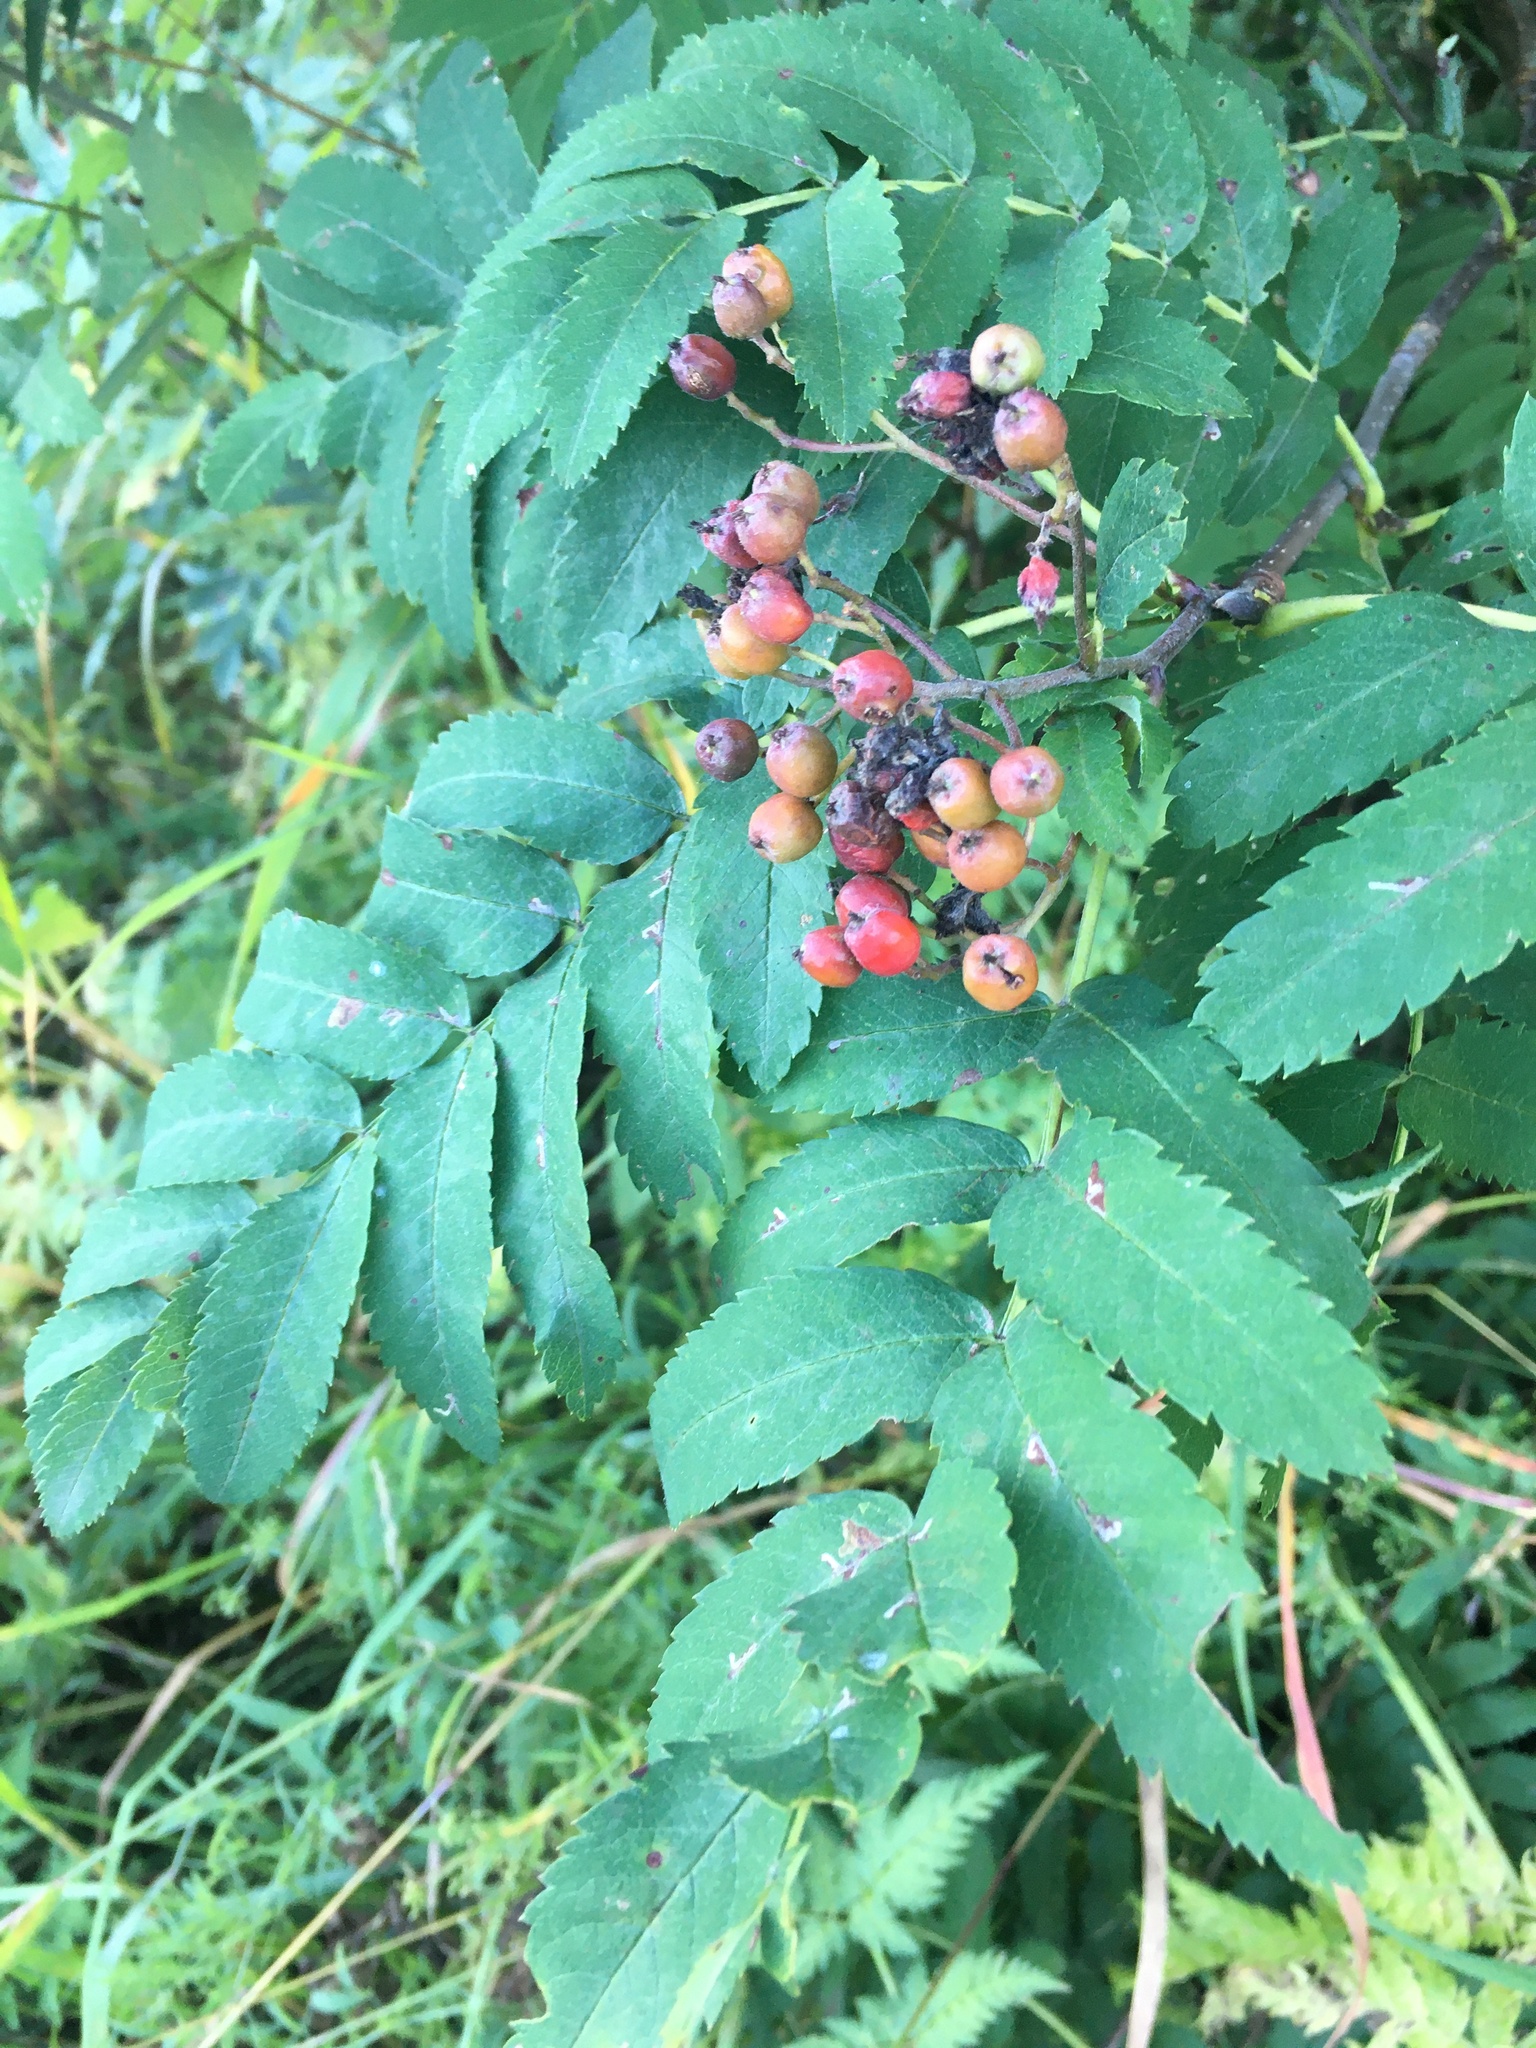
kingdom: Plantae
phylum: Tracheophyta
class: Magnoliopsida
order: Rosales
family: Rosaceae
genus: Sorbus
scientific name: Sorbus aucuparia
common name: Rowan
